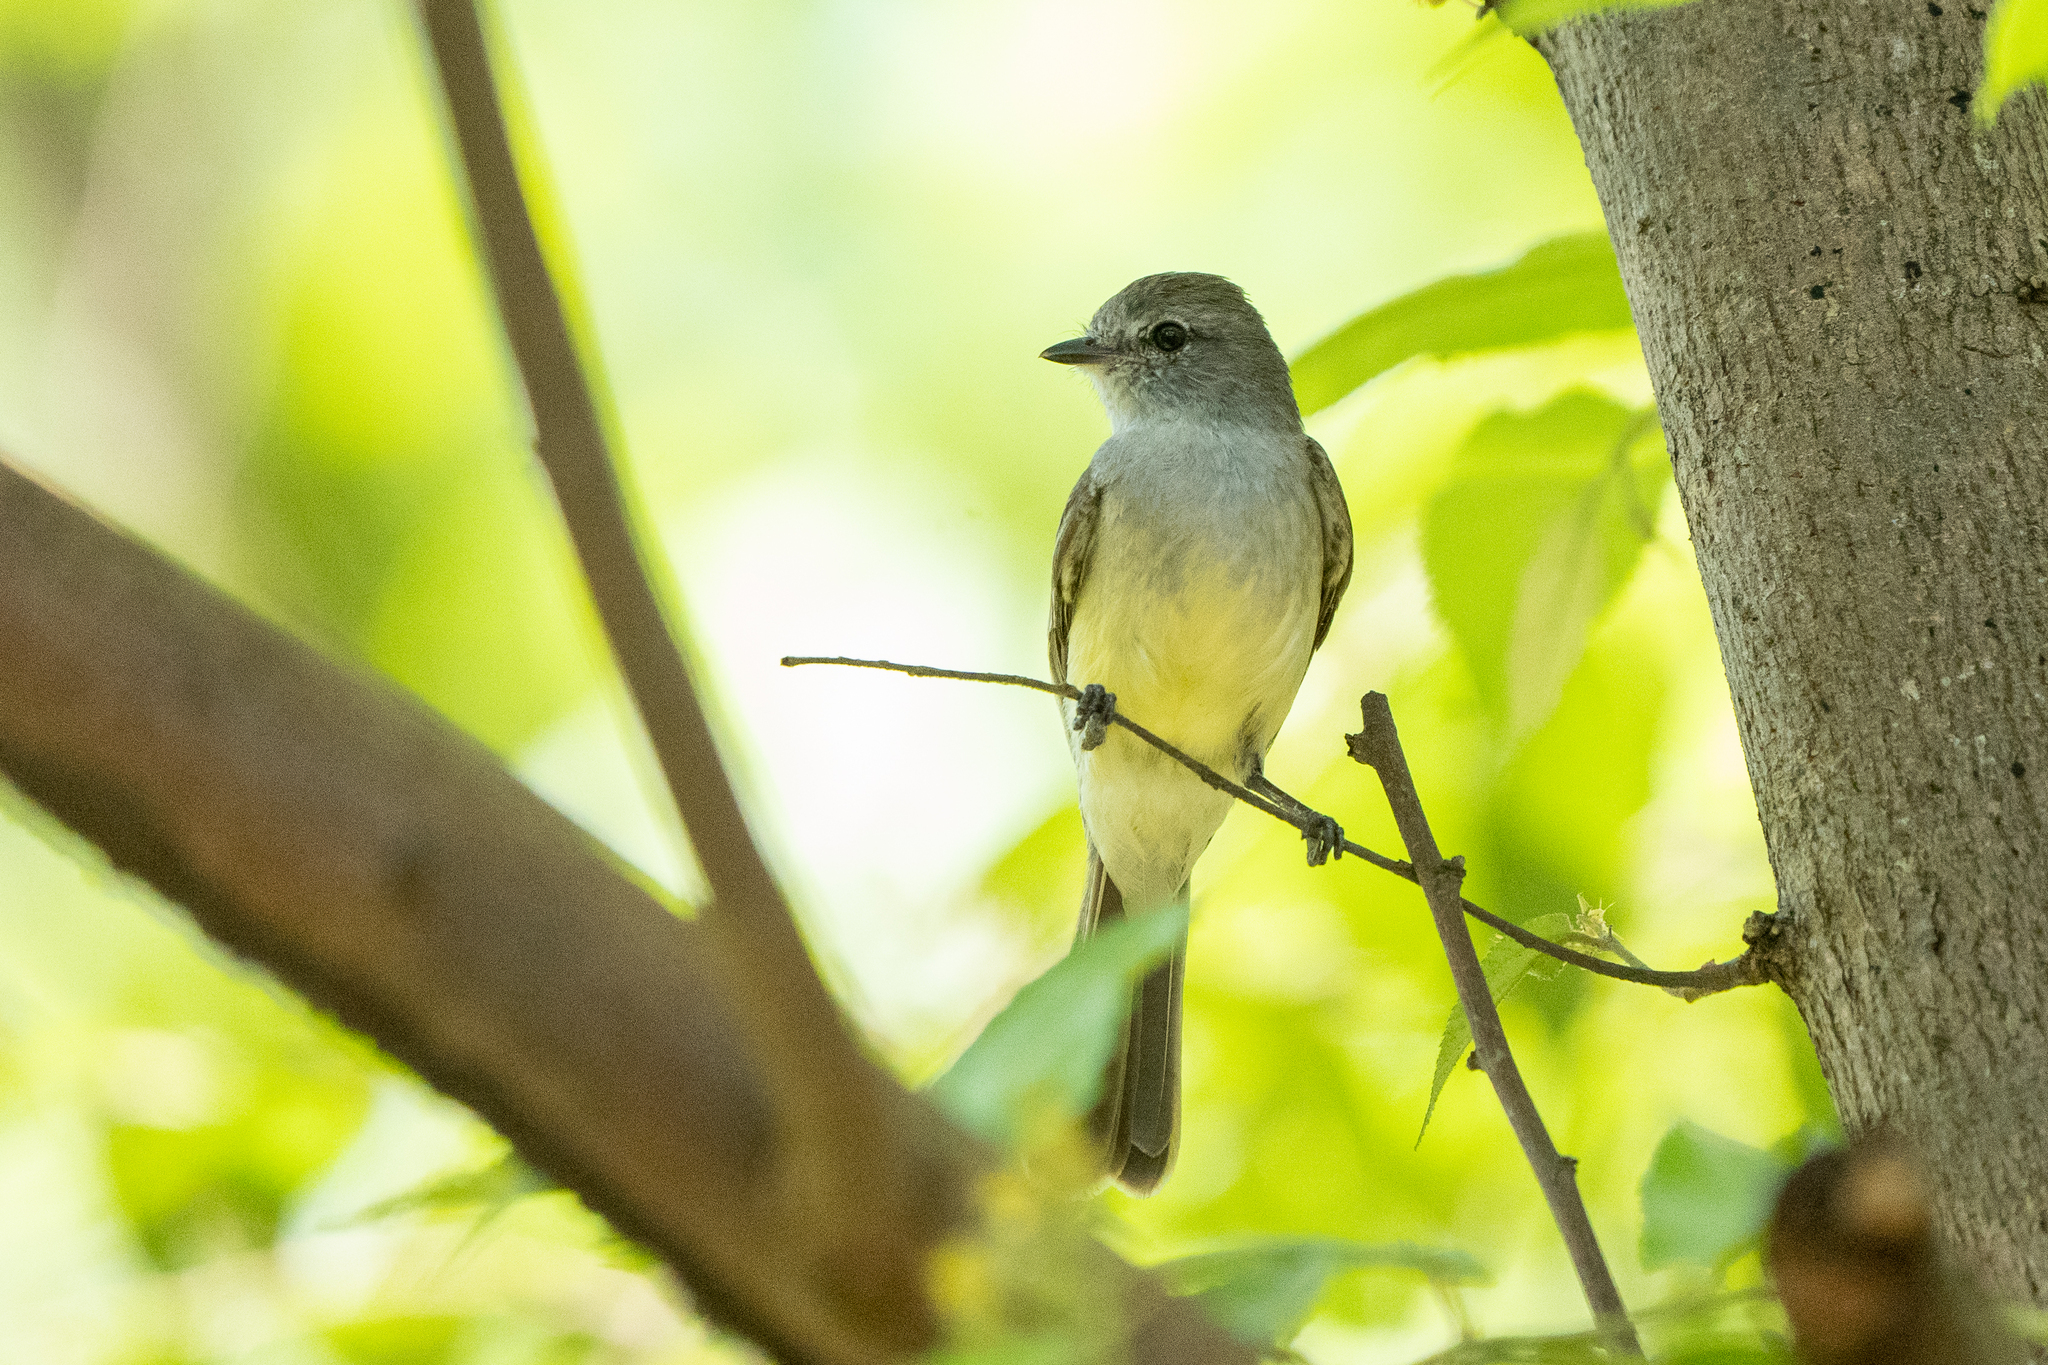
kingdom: Animalia
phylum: Chordata
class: Aves
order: Passeriformes
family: Tyrannidae
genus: Sublegatus
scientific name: Sublegatus arenarum
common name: Northern scrub-flycatcher
